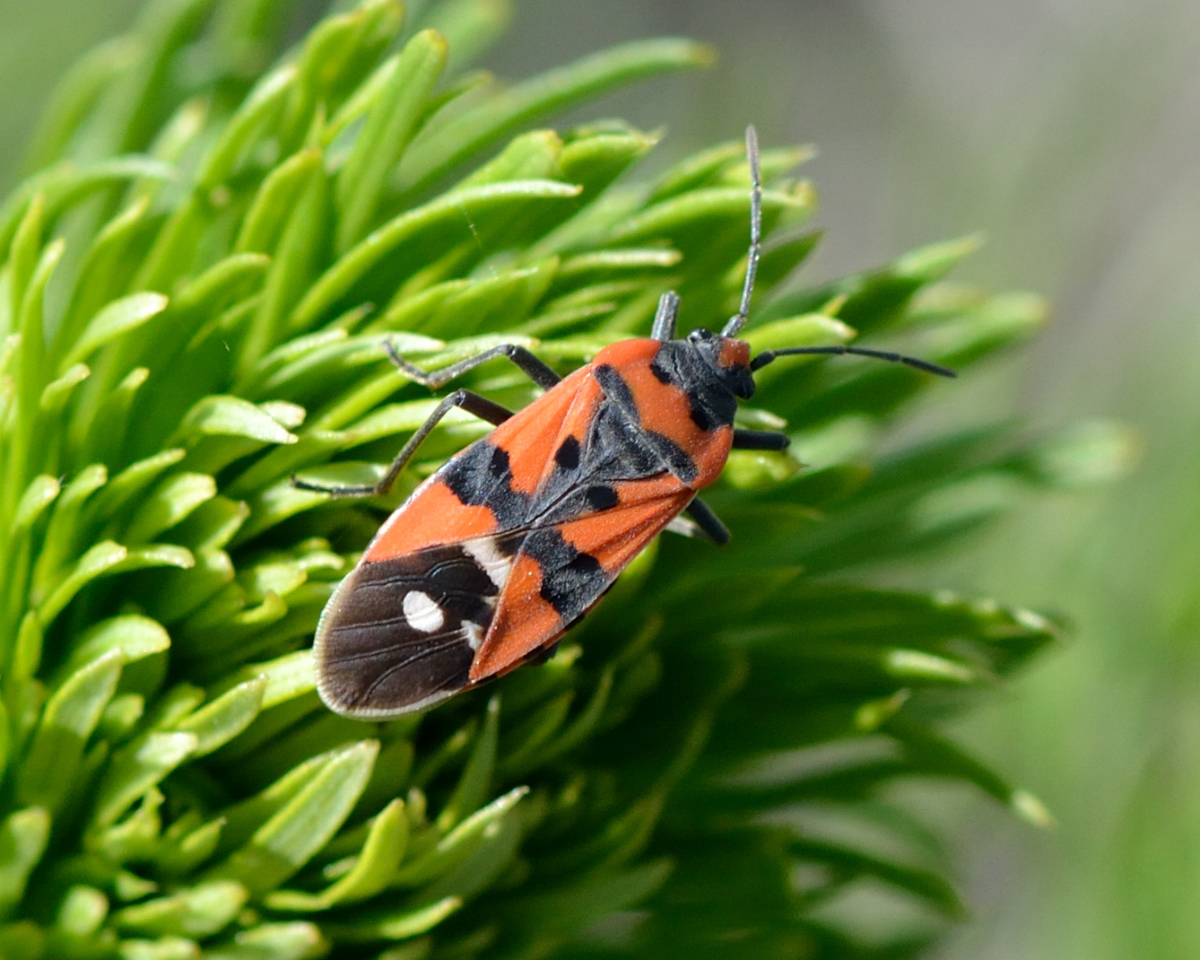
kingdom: Animalia
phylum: Arthropoda
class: Insecta
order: Hemiptera
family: Lygaeidae
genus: Lygaeus
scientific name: Lygaeus equestris
